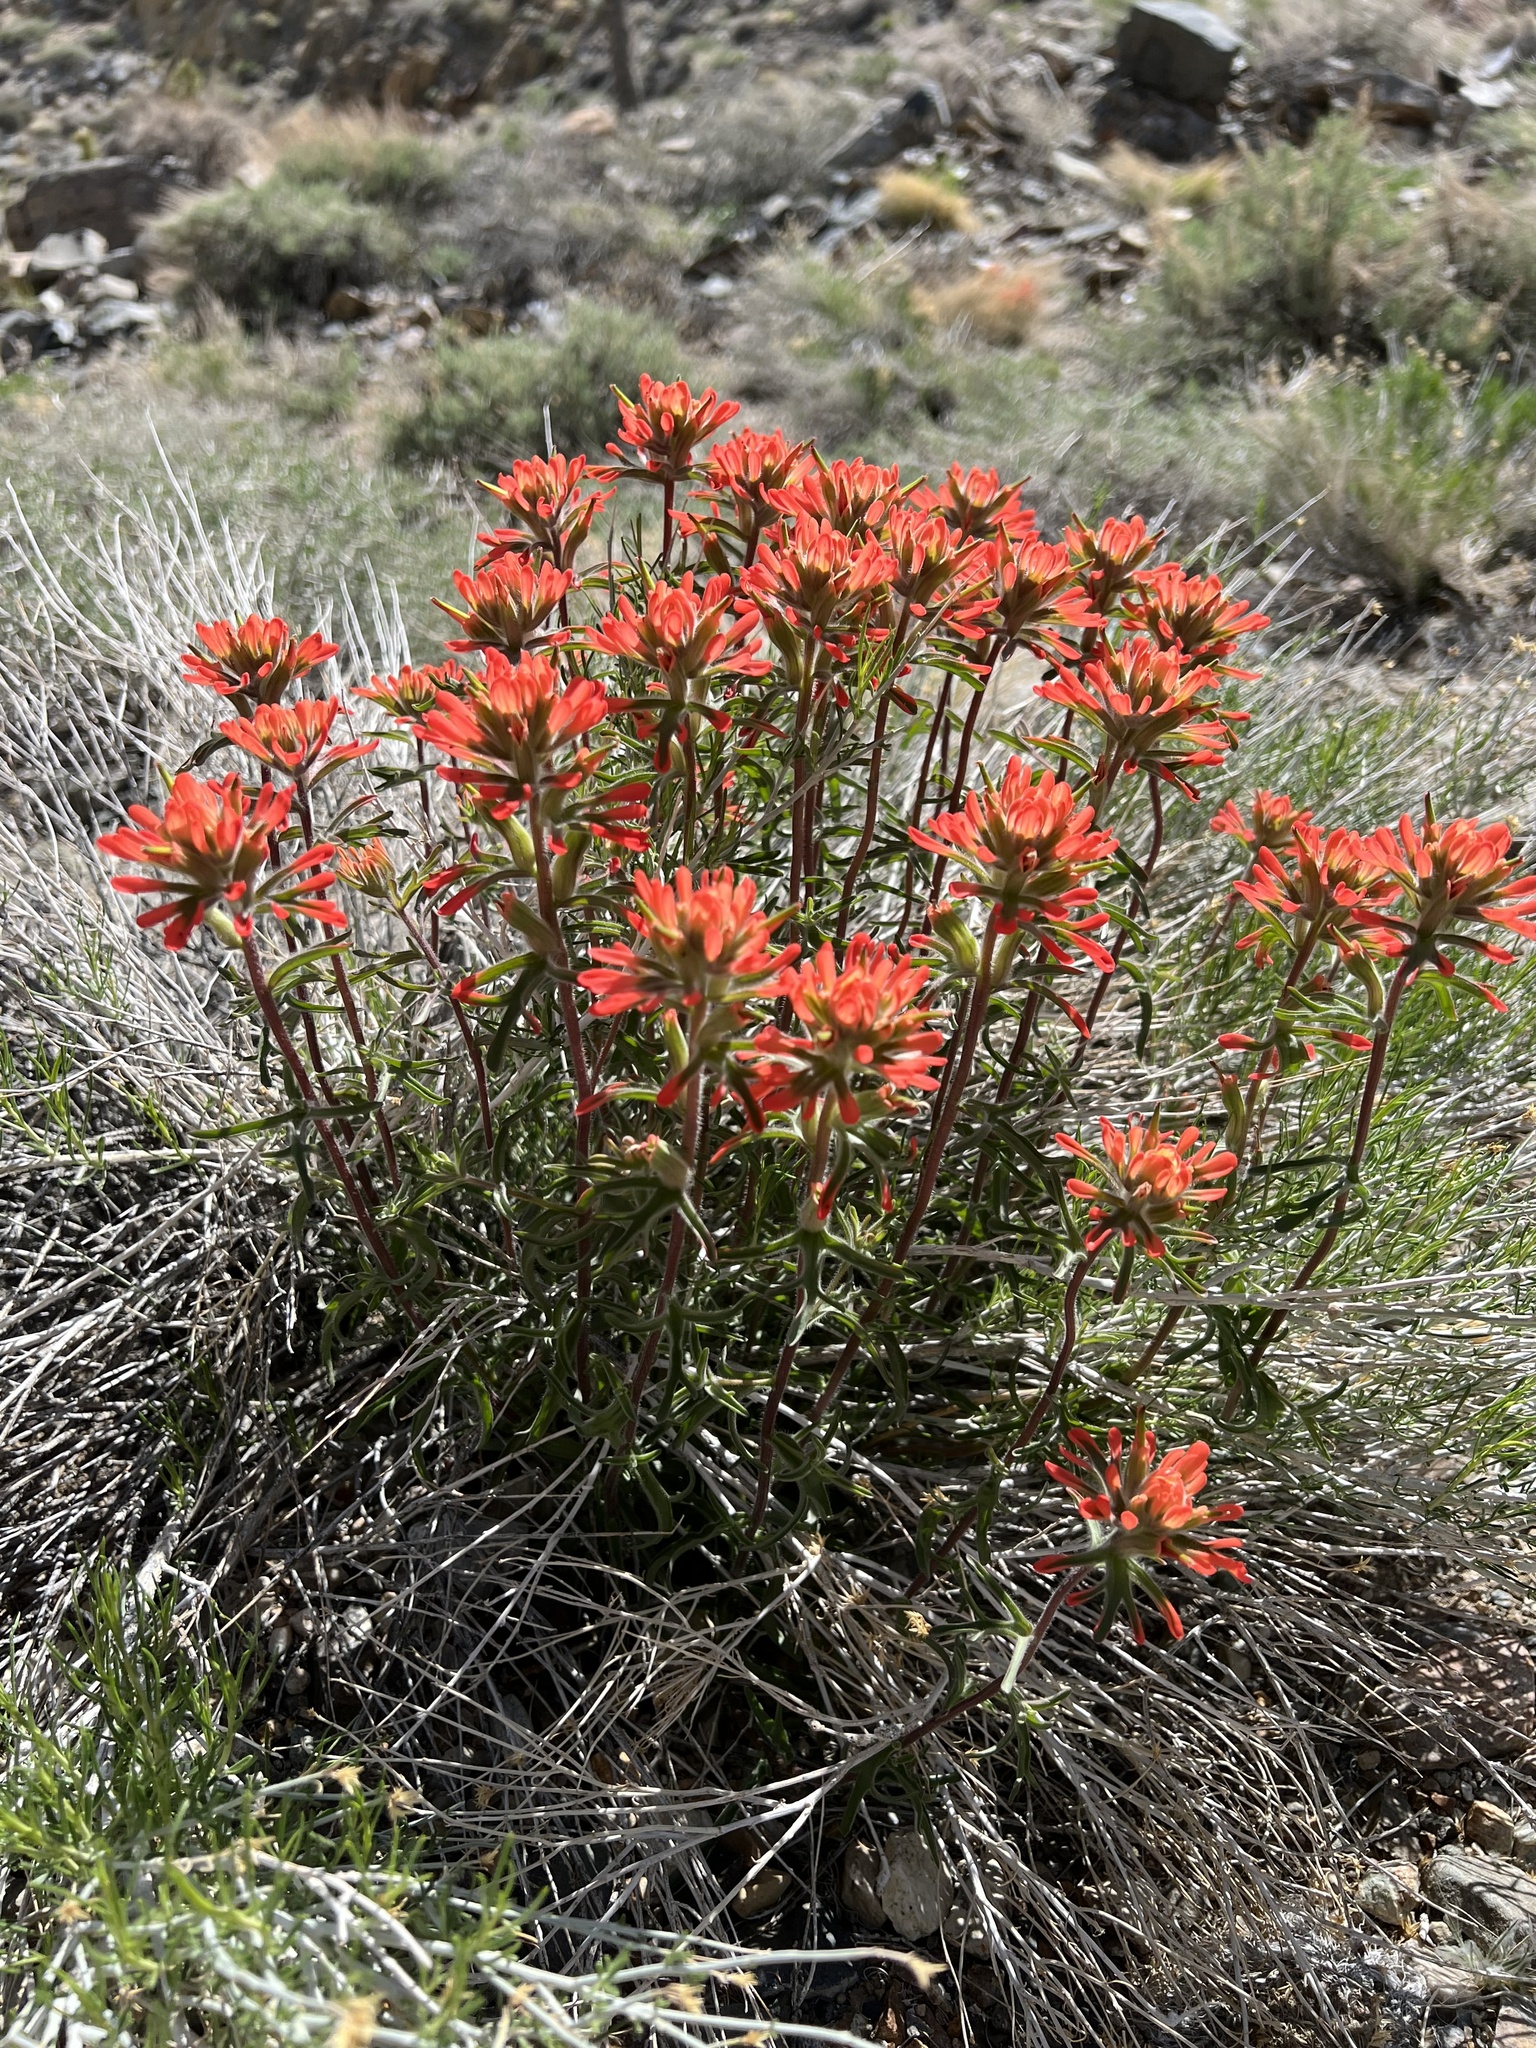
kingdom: Plantae
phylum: Tracheophyta
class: Magnoliopsida
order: Lamiales
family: Orobanchaceae
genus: Castilleja
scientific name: Castilleja chromosa
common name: Desert paintbrush
